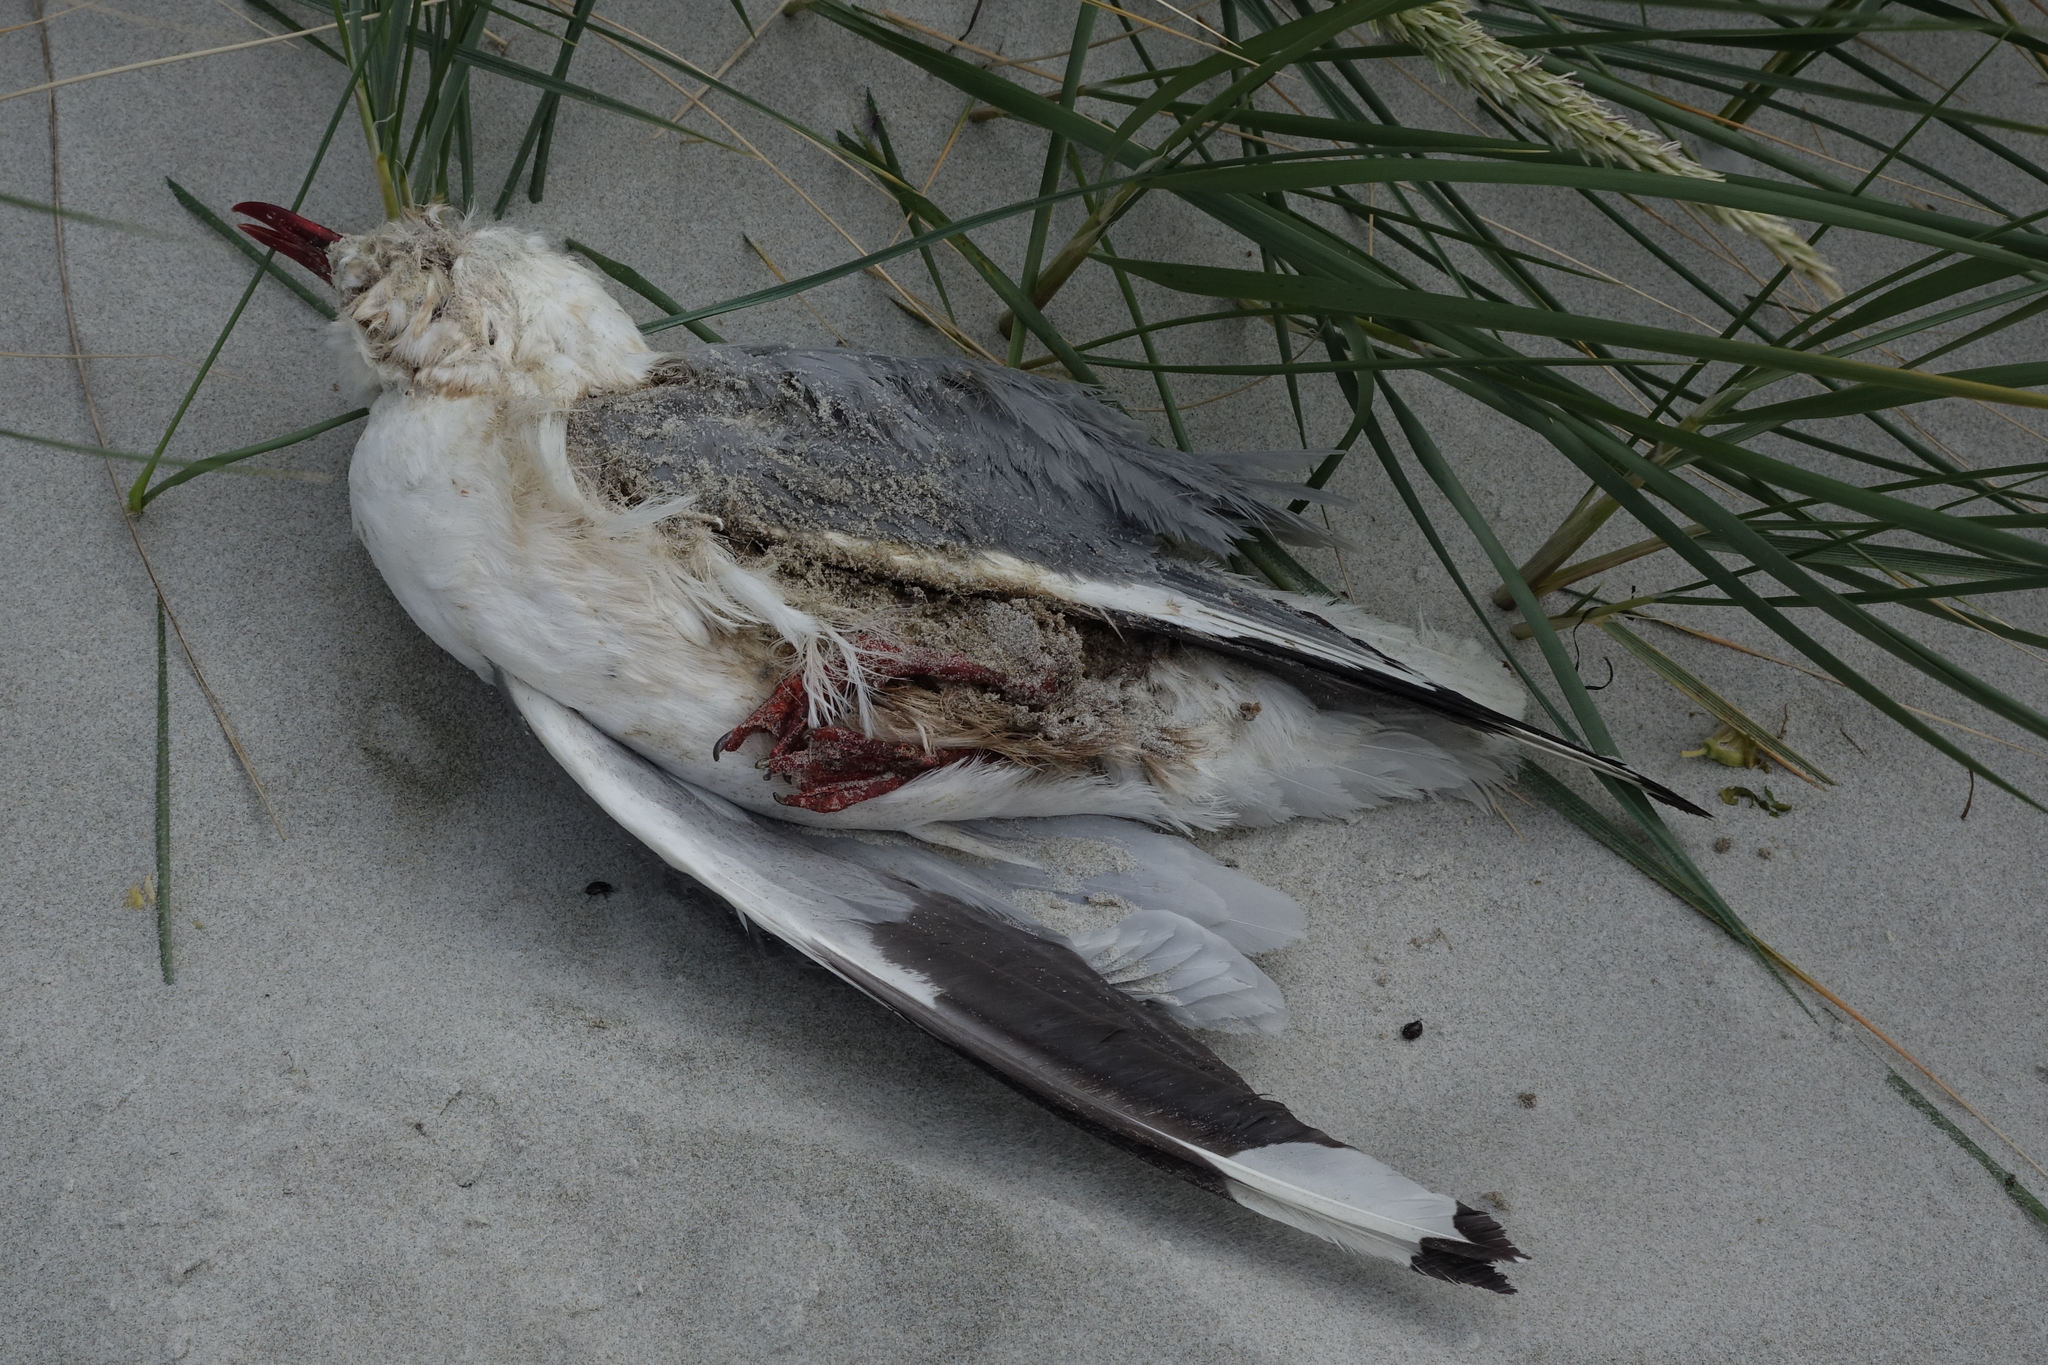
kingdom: Animalia
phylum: Chordata
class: Aves
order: Charadriiformes
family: Laridae
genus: Chroicocephalus
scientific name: Chroicocephalus novaehollandiae
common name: Silver gull
